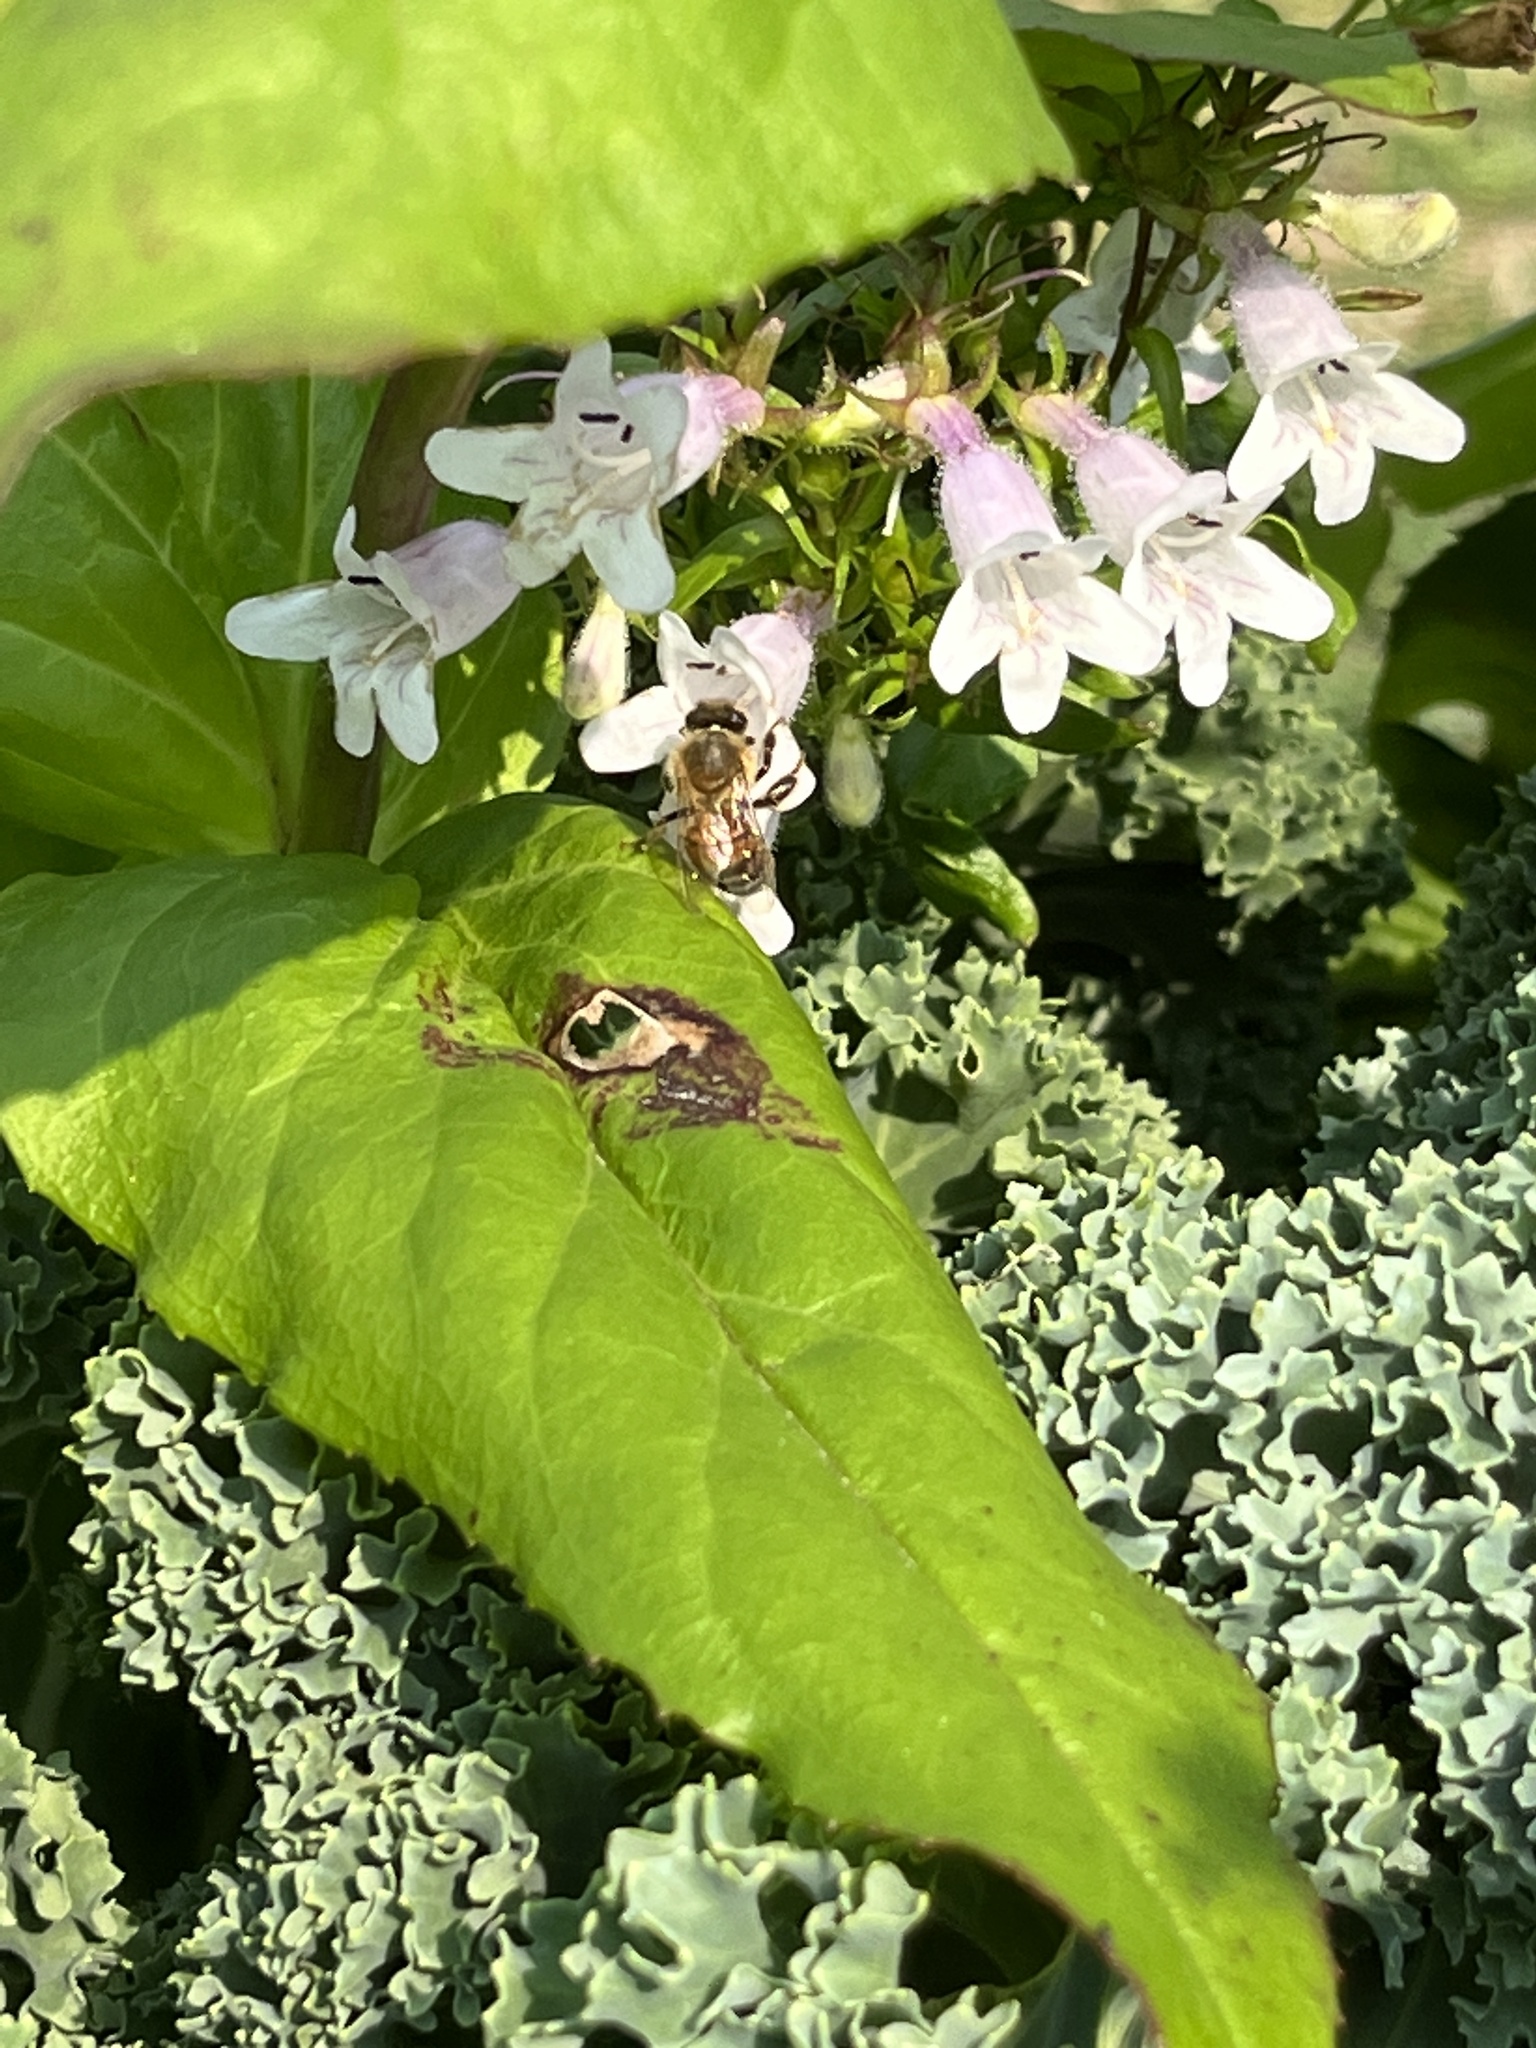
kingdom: Animalia
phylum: Arthropoda
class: Insecta
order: Hymenoptera
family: Apidae
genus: Apis
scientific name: Apis mellifera
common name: Honey bee
